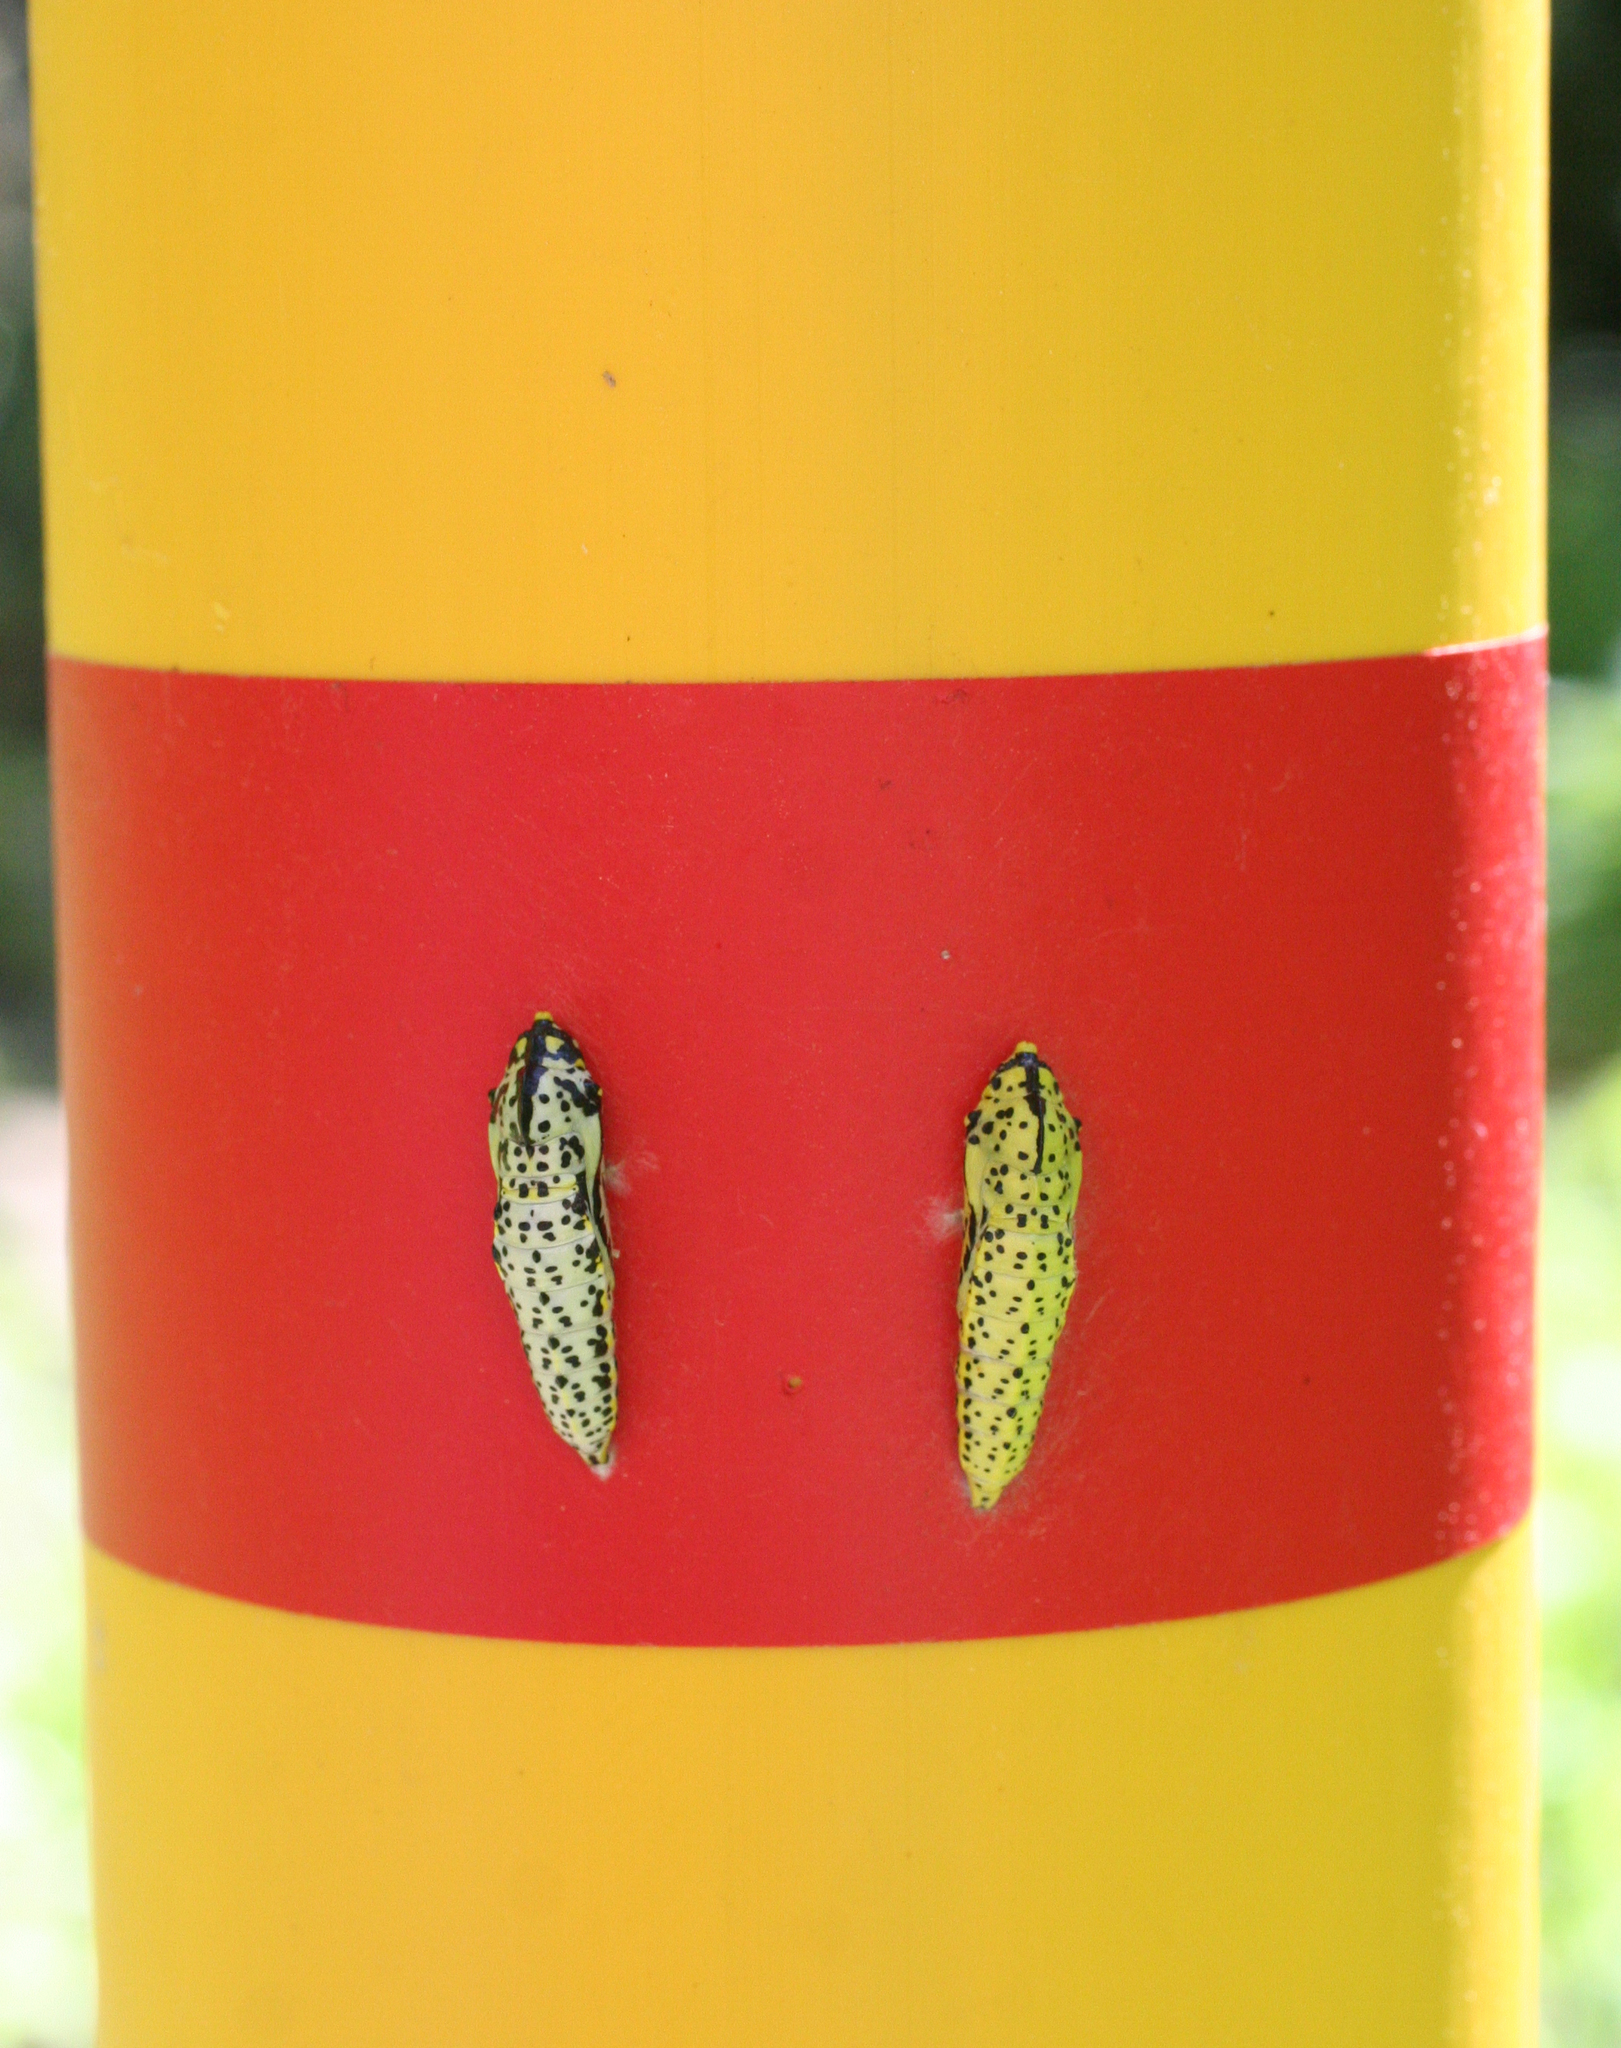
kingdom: Animalia
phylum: Arthropoda
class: Insecta
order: Lepidoptera
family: Pieridae
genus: Aporia
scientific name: Aporia crataegi
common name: Black-veined white
